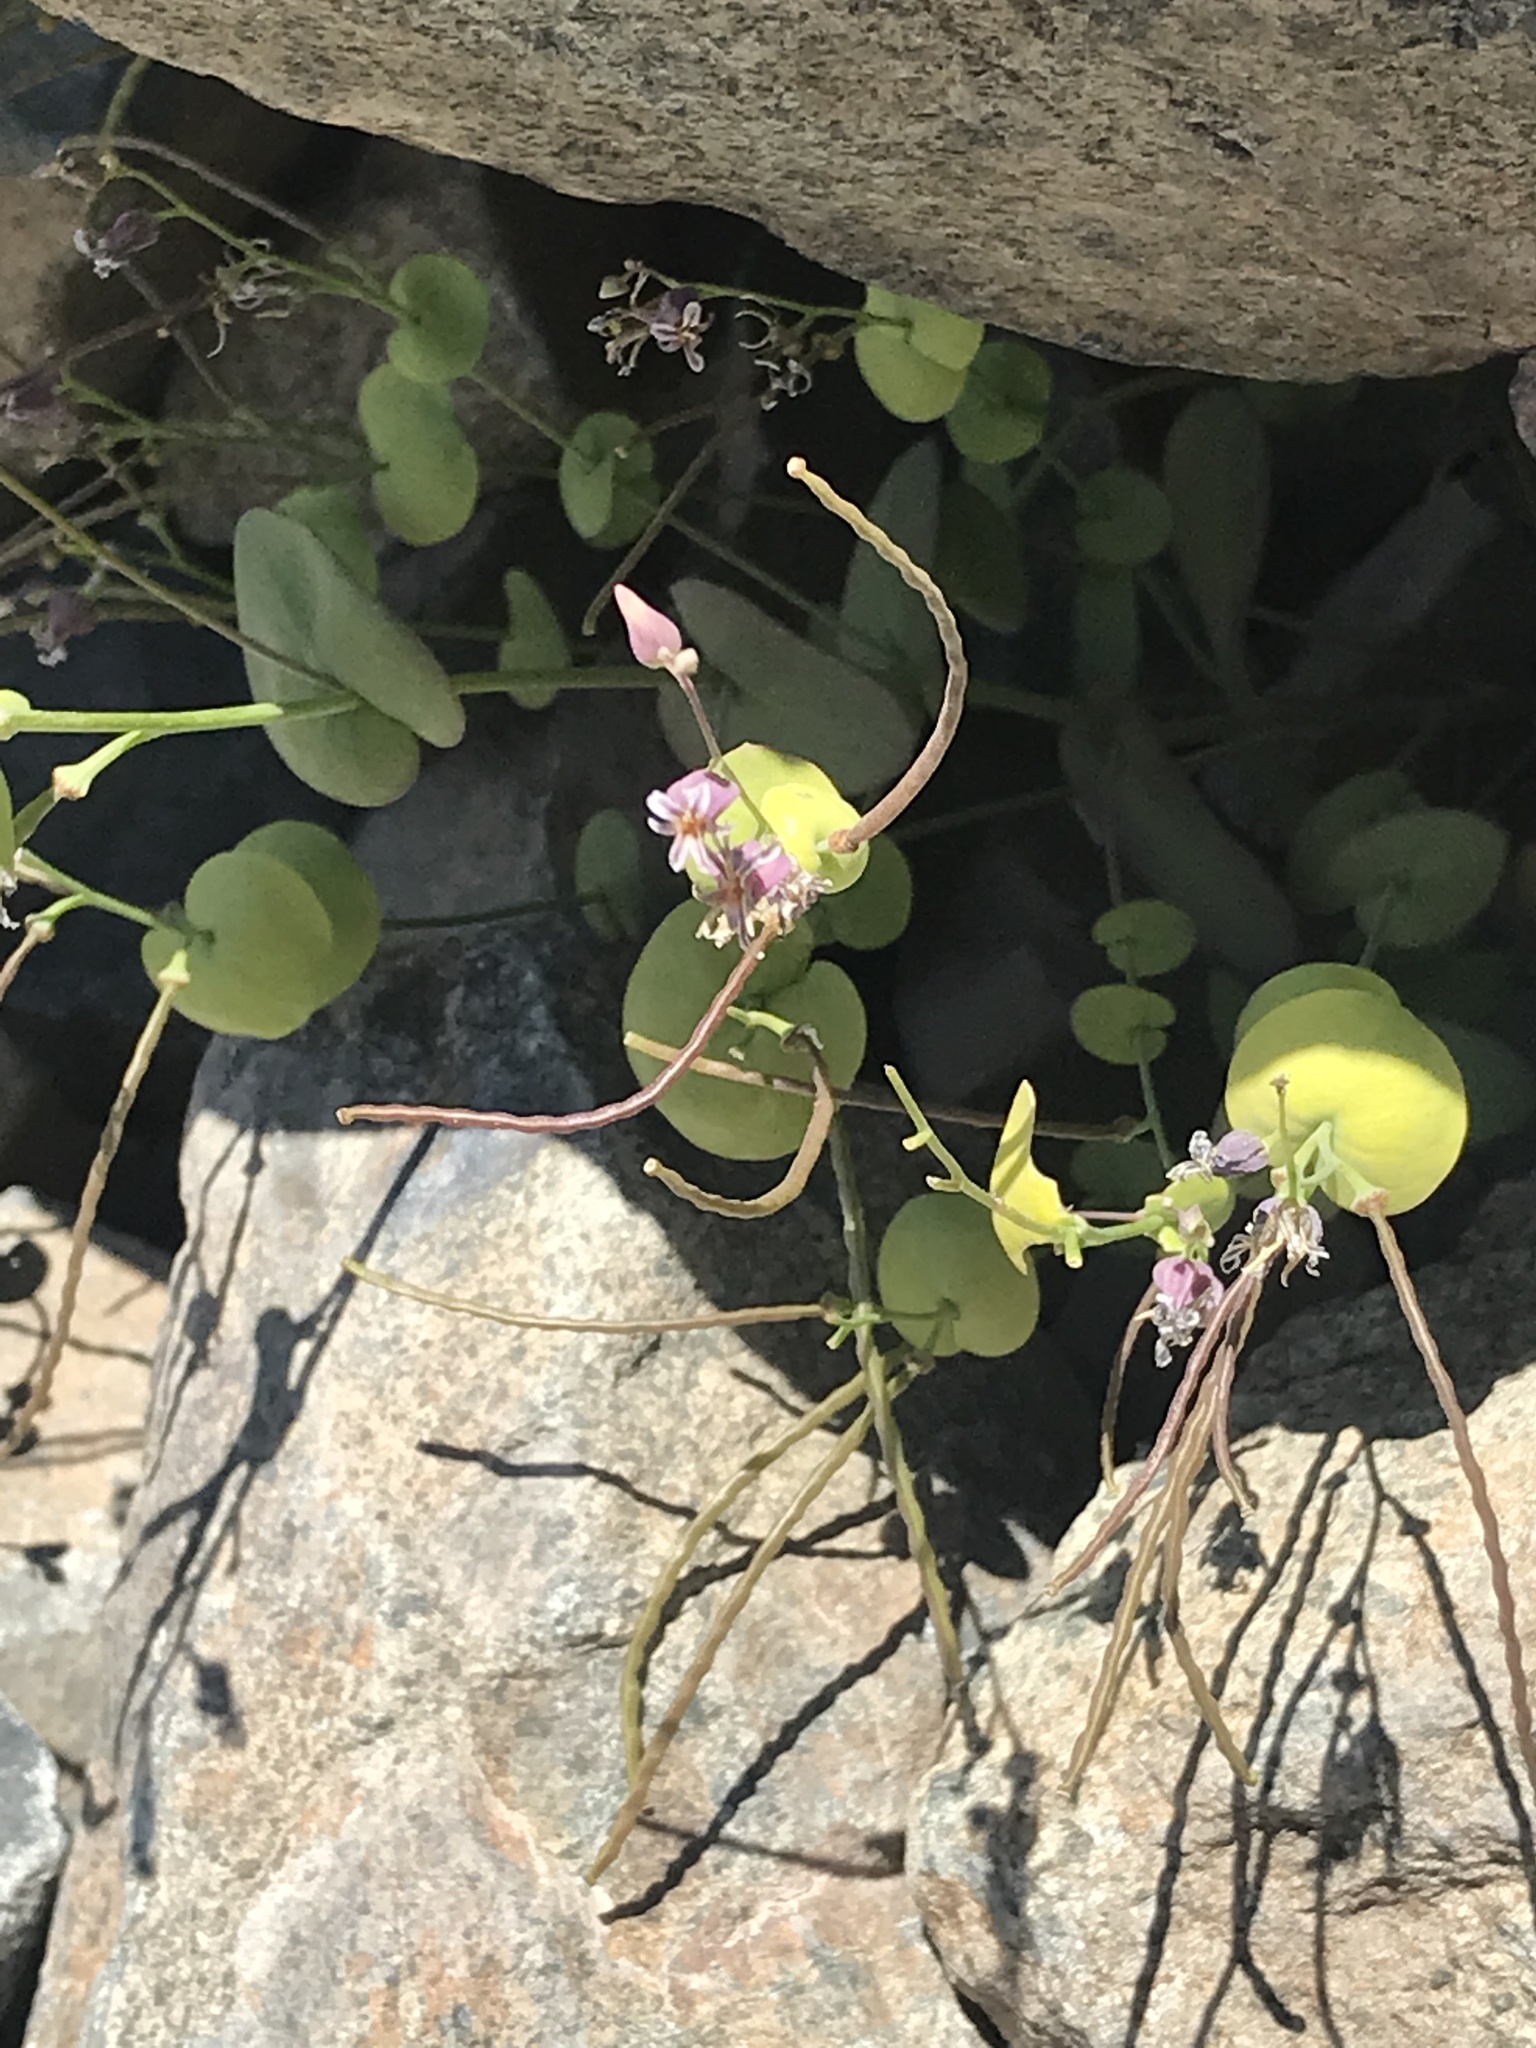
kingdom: Plantae
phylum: Tracheophyta
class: Magnoliopsida
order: Brassicales
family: Brassicaceae
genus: Streptanthus
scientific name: Streptanthus tortuosus
